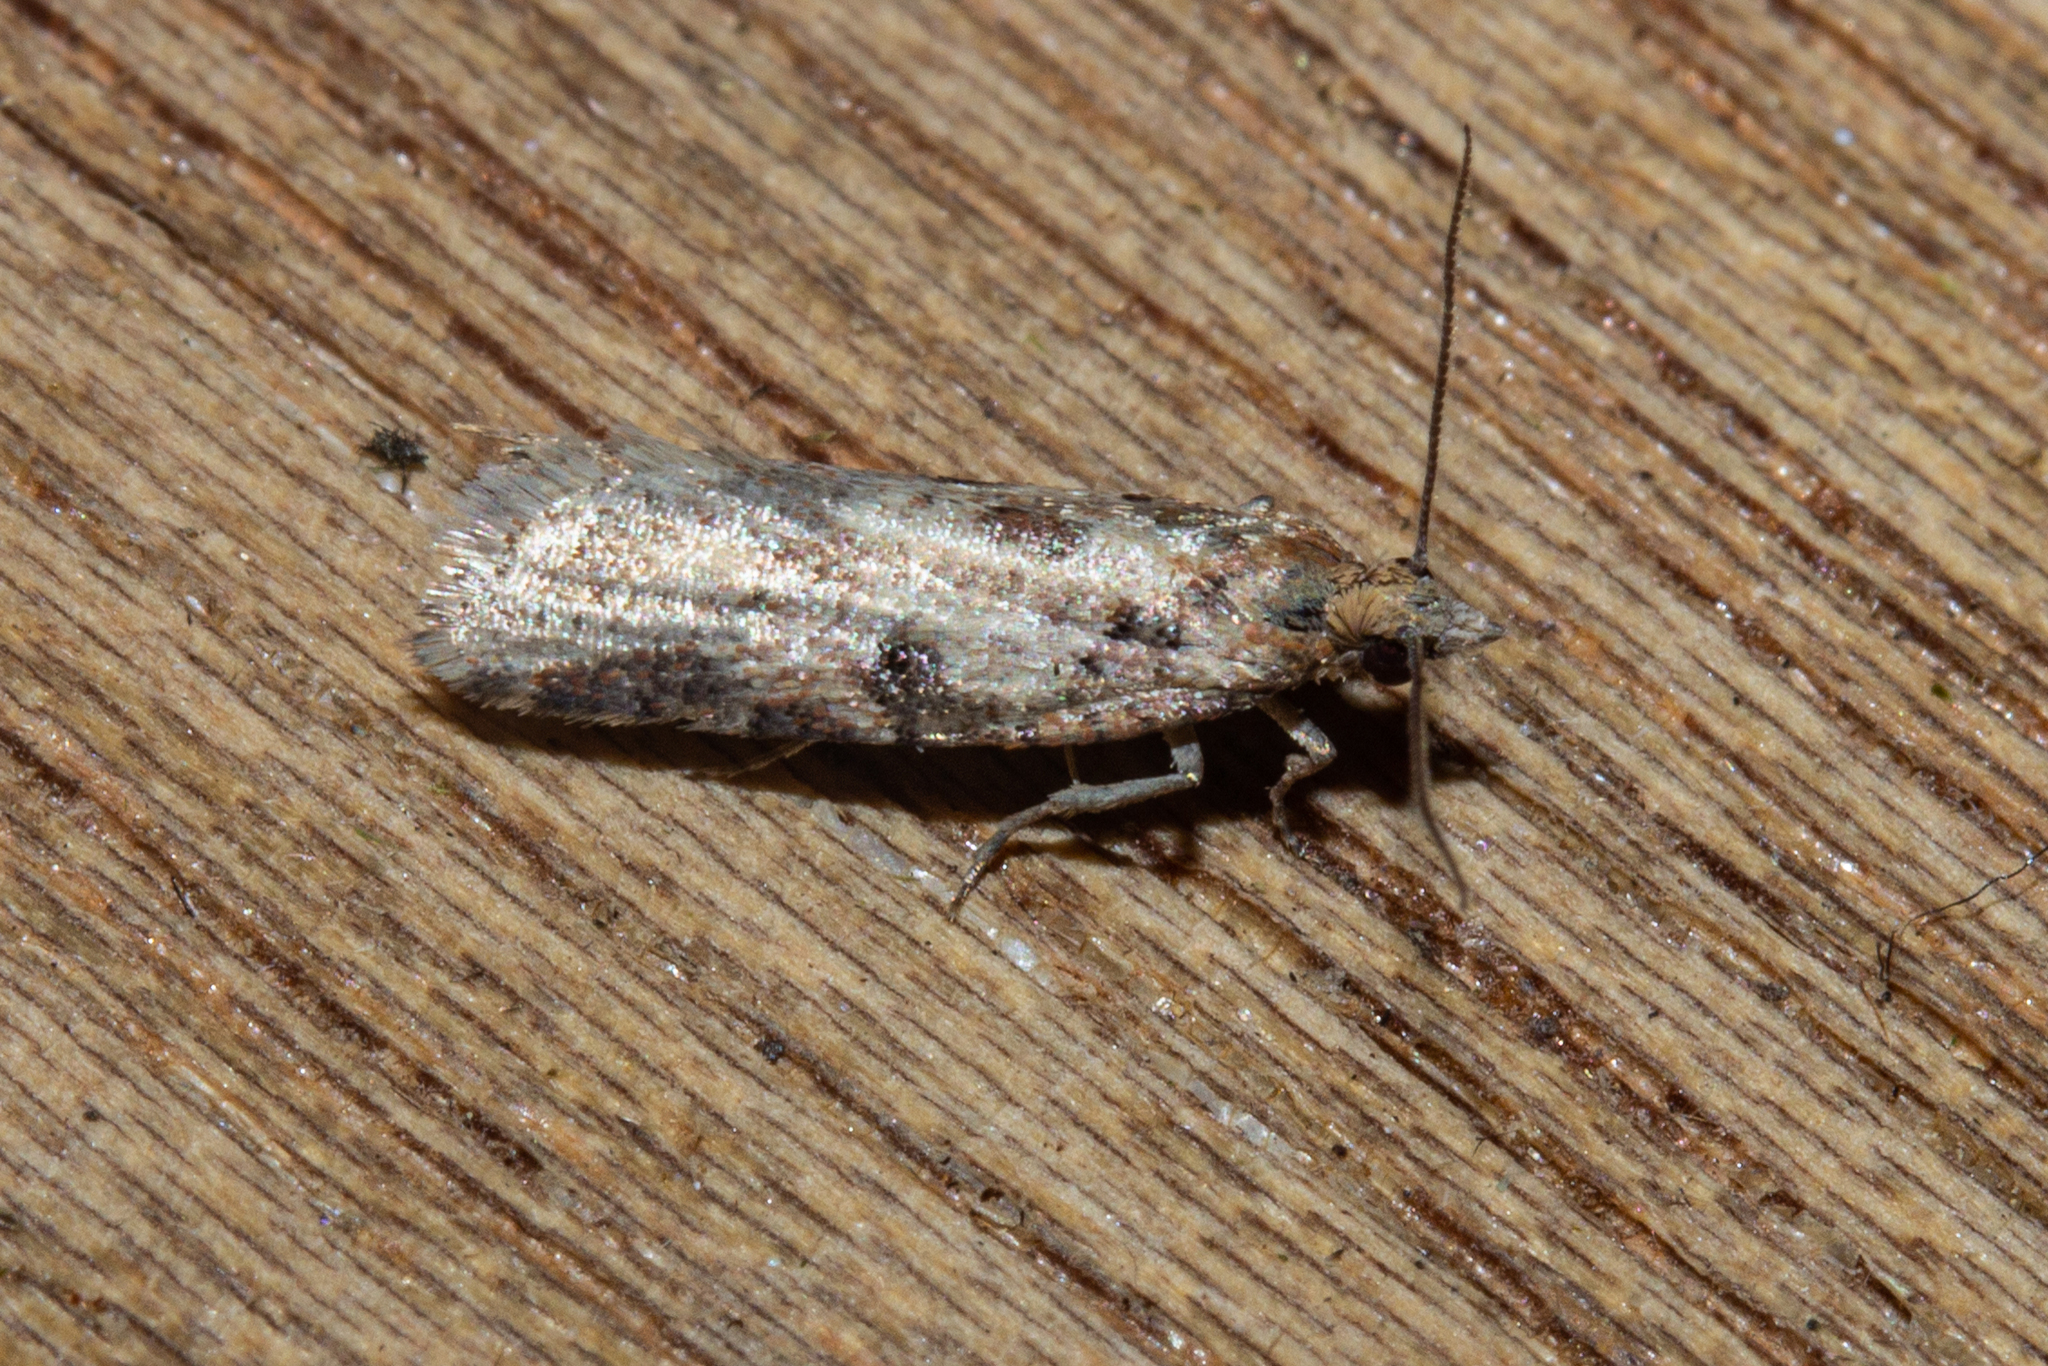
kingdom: Animalia
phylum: Arthropoda
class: Insecta
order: Lepidoptera
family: Tortricidae
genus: Capua
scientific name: Capua semiferana
